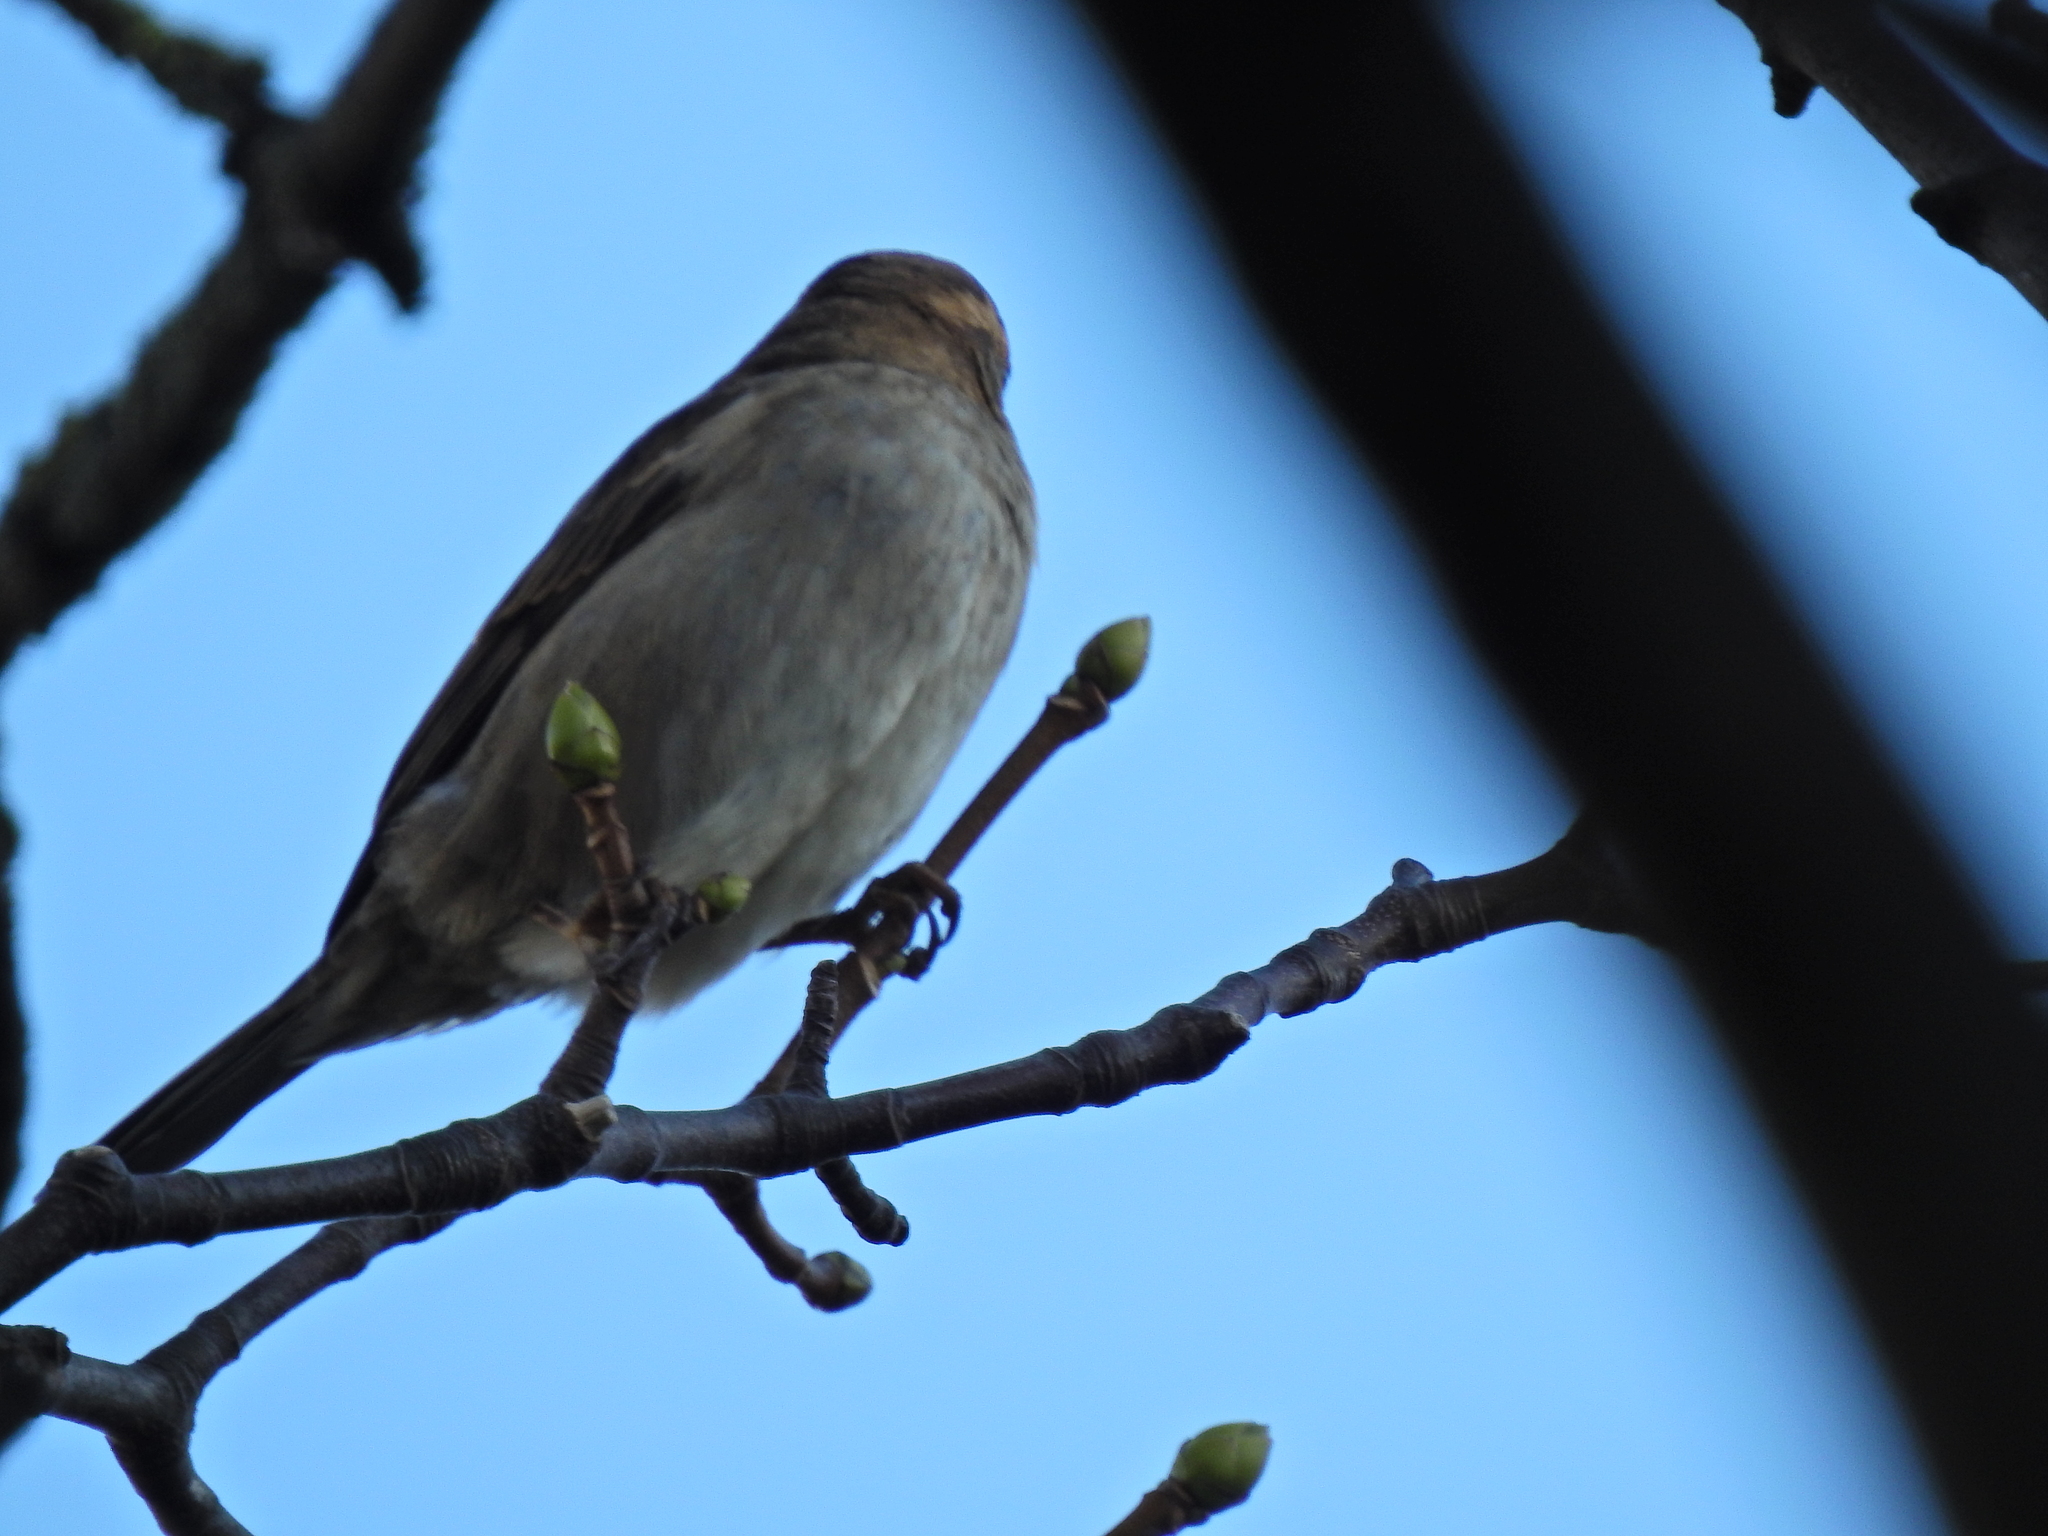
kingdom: Animalia
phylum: Chordata
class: Aves
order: Passeriformes
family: Passeridae
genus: Passer
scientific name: Passer domesticus
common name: House sparrow
